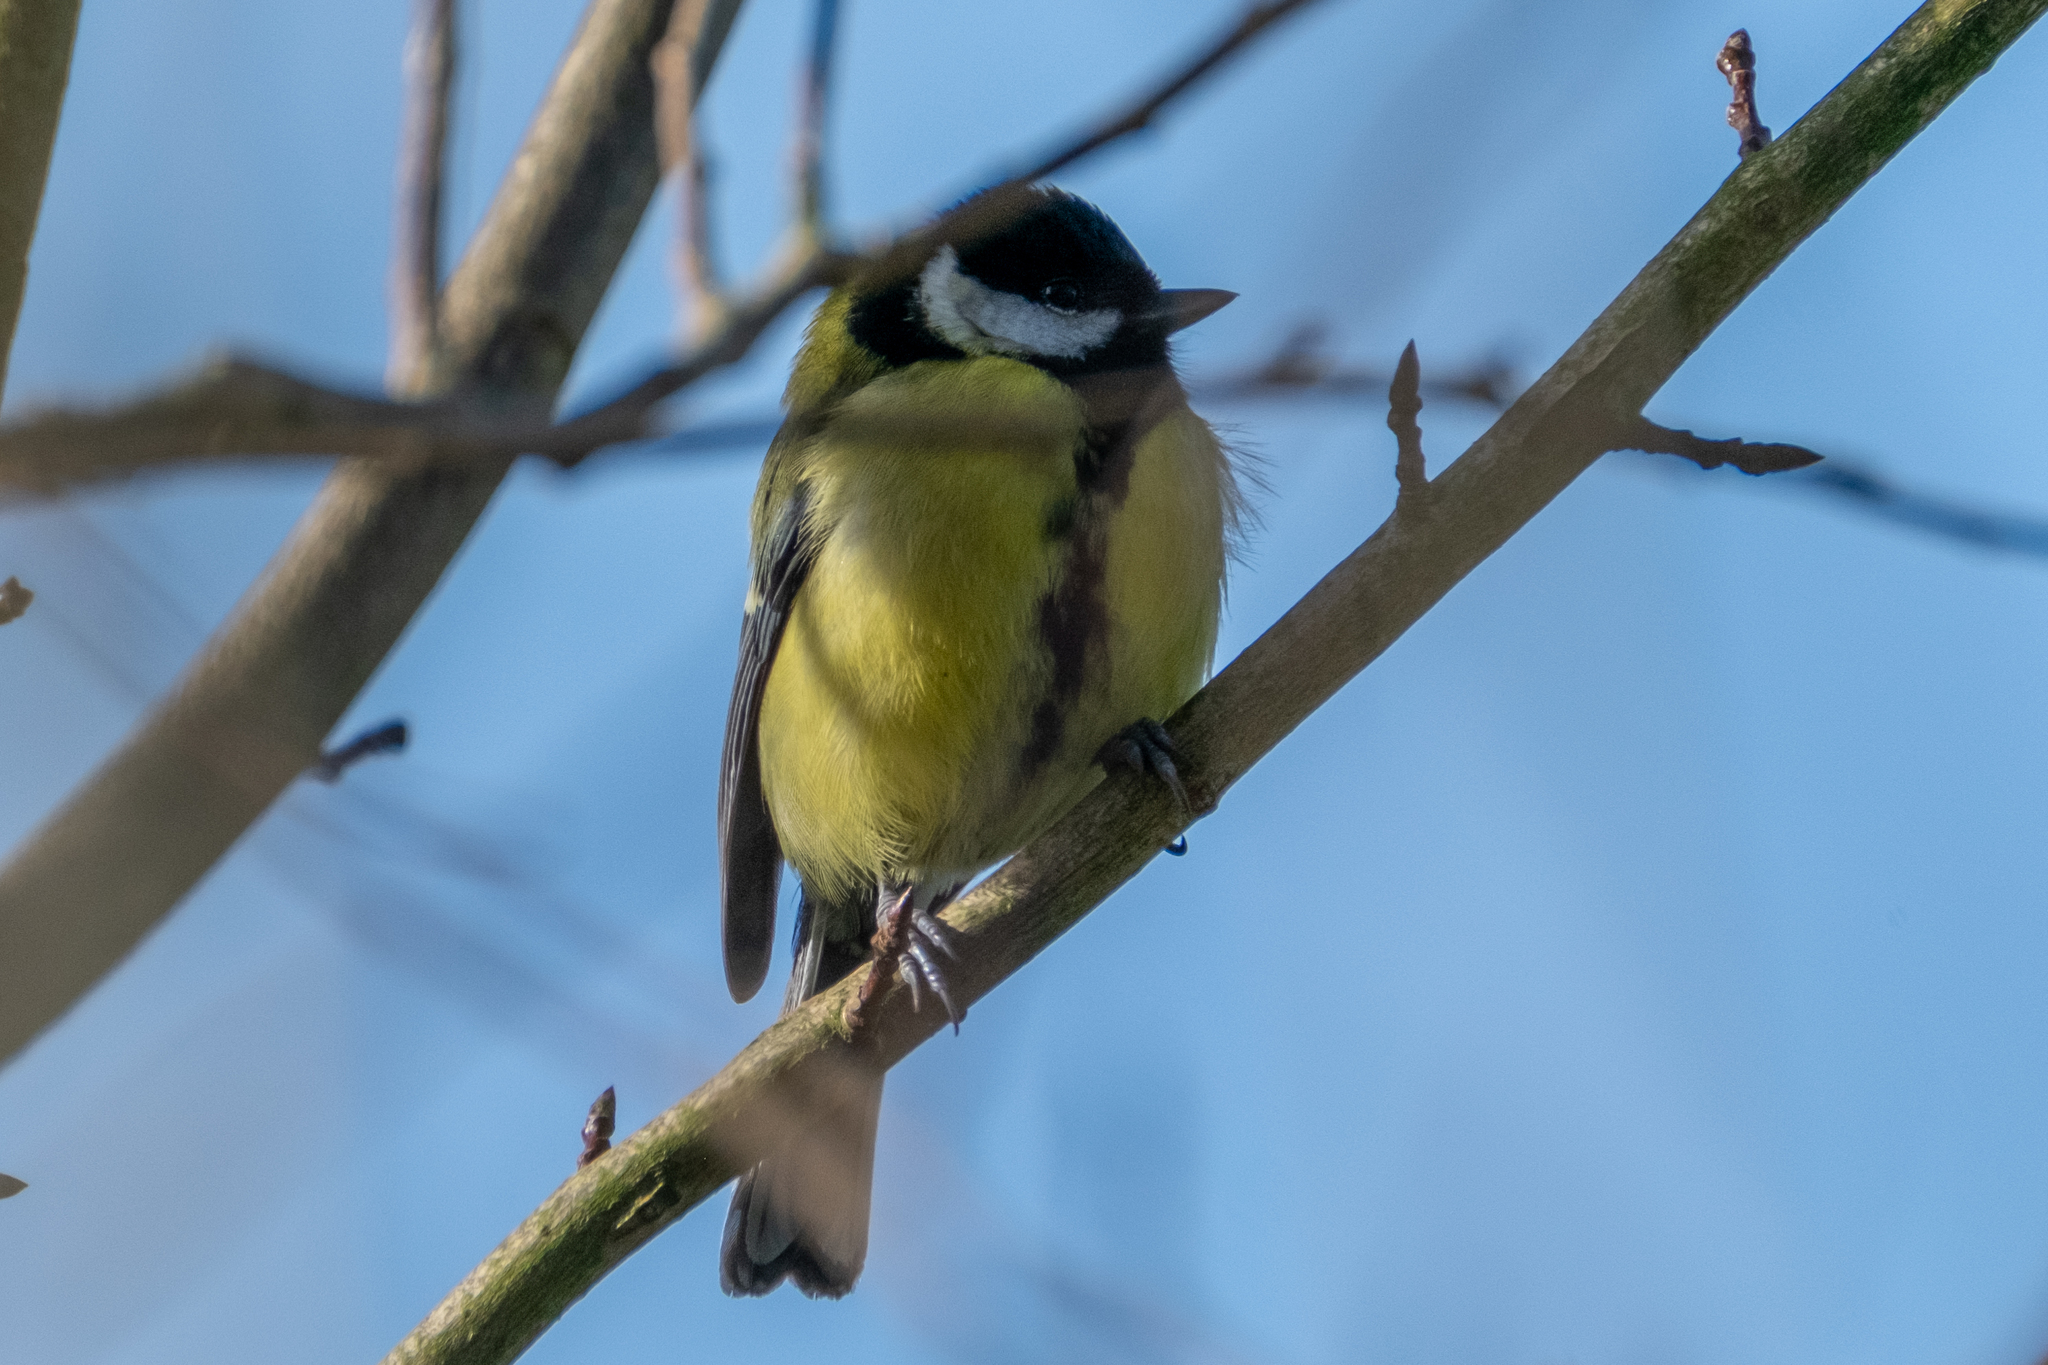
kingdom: Animalia
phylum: Chordata
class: Aves
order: Passeriformes
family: Paridae
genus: Parus
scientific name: Parus major
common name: Great tit
